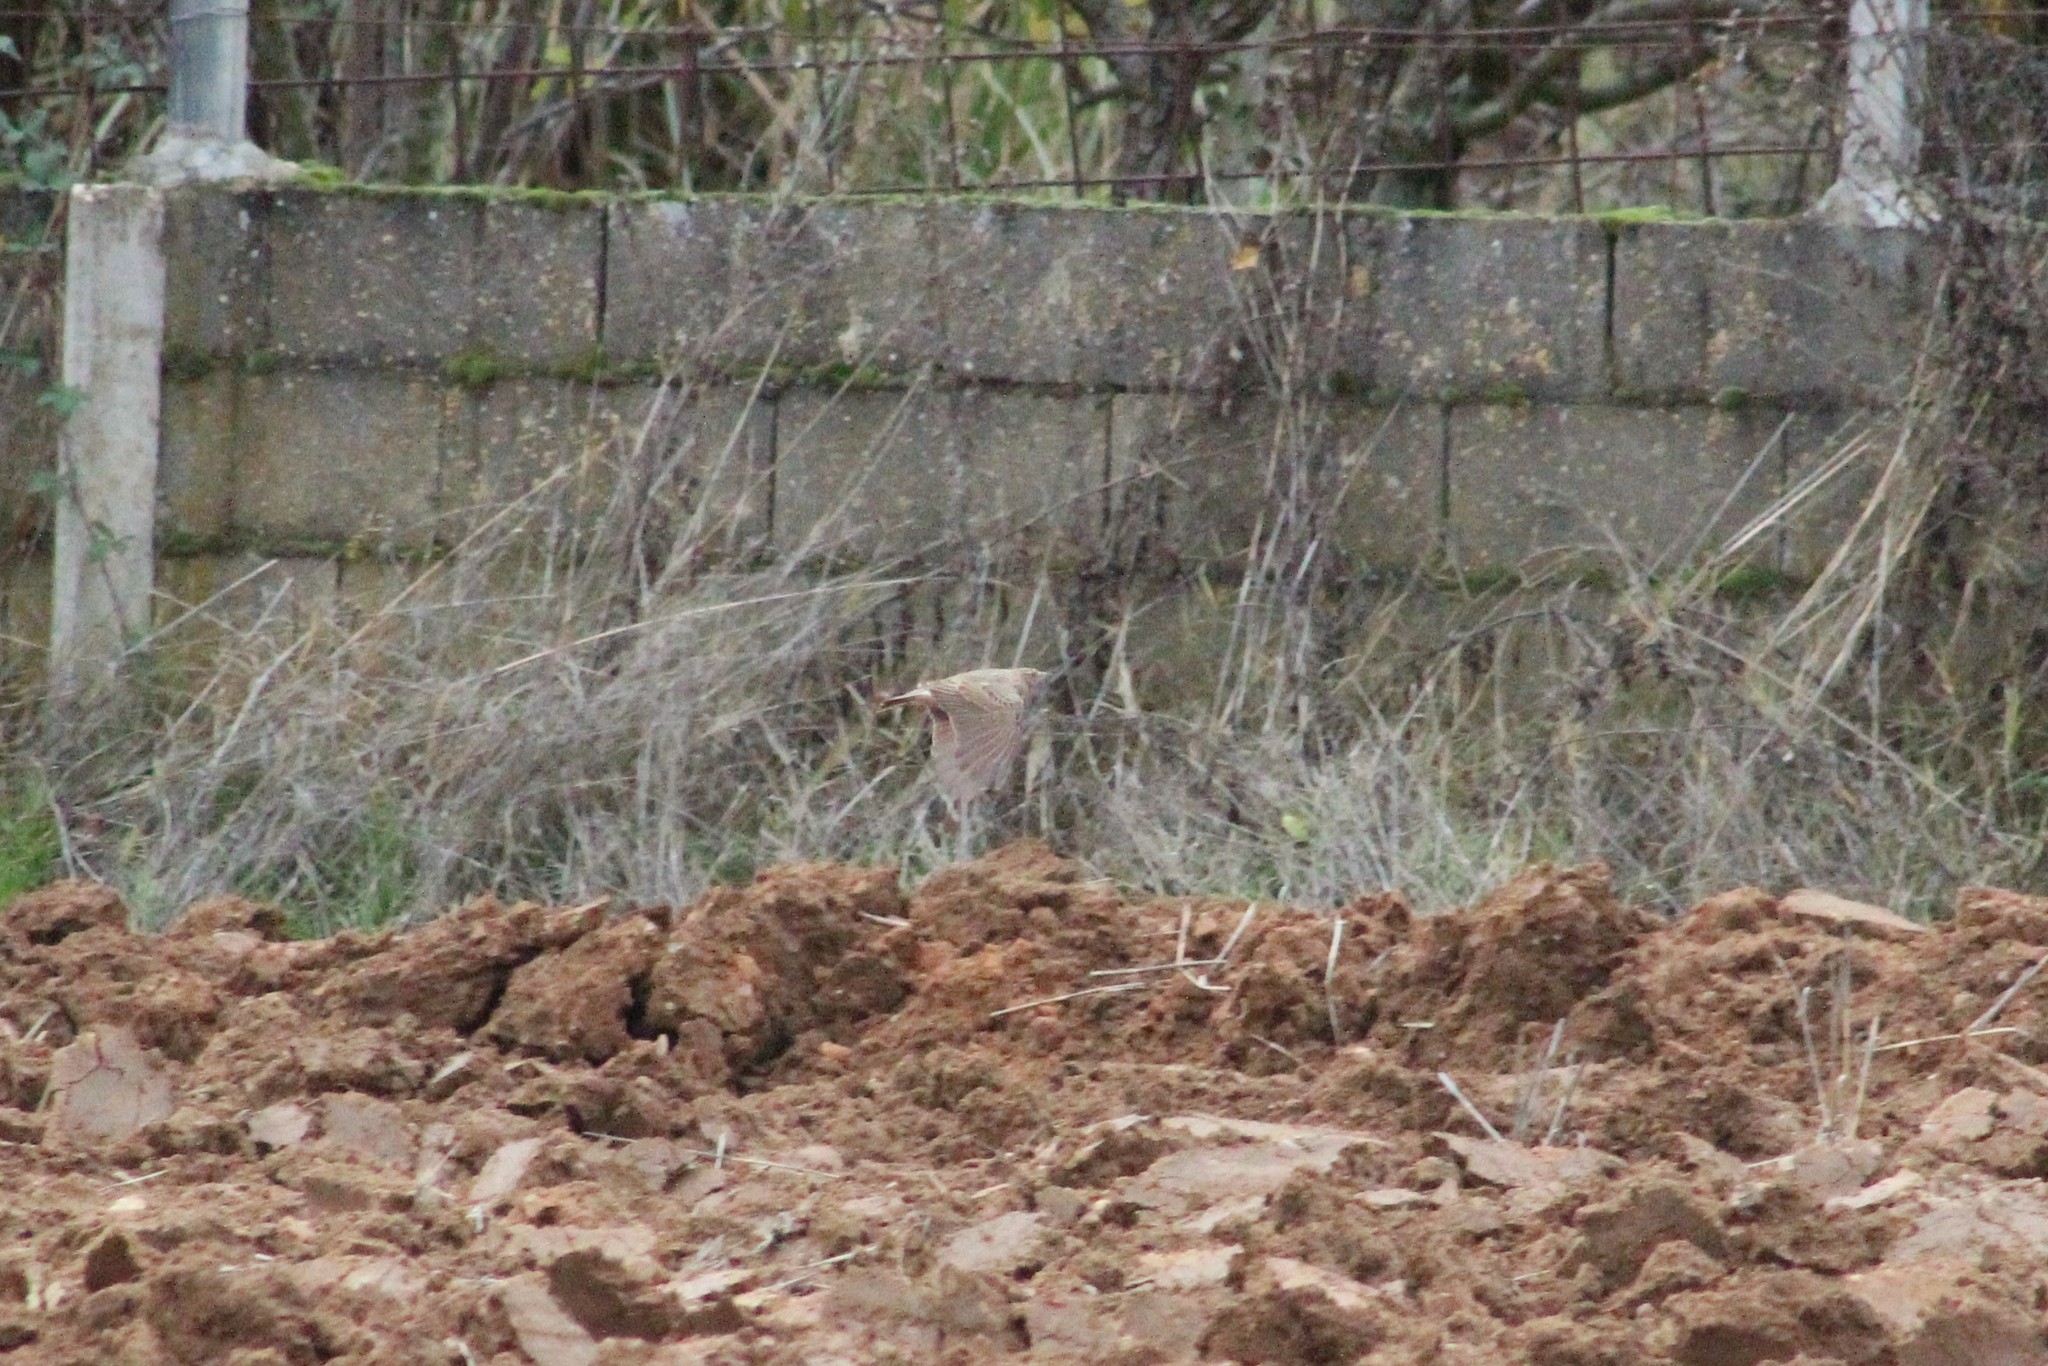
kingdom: Animalia
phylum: Chordata
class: Aves
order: Passeriformes
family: Alaudidae
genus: Galerida
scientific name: Galerida cristata
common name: Crested lark
